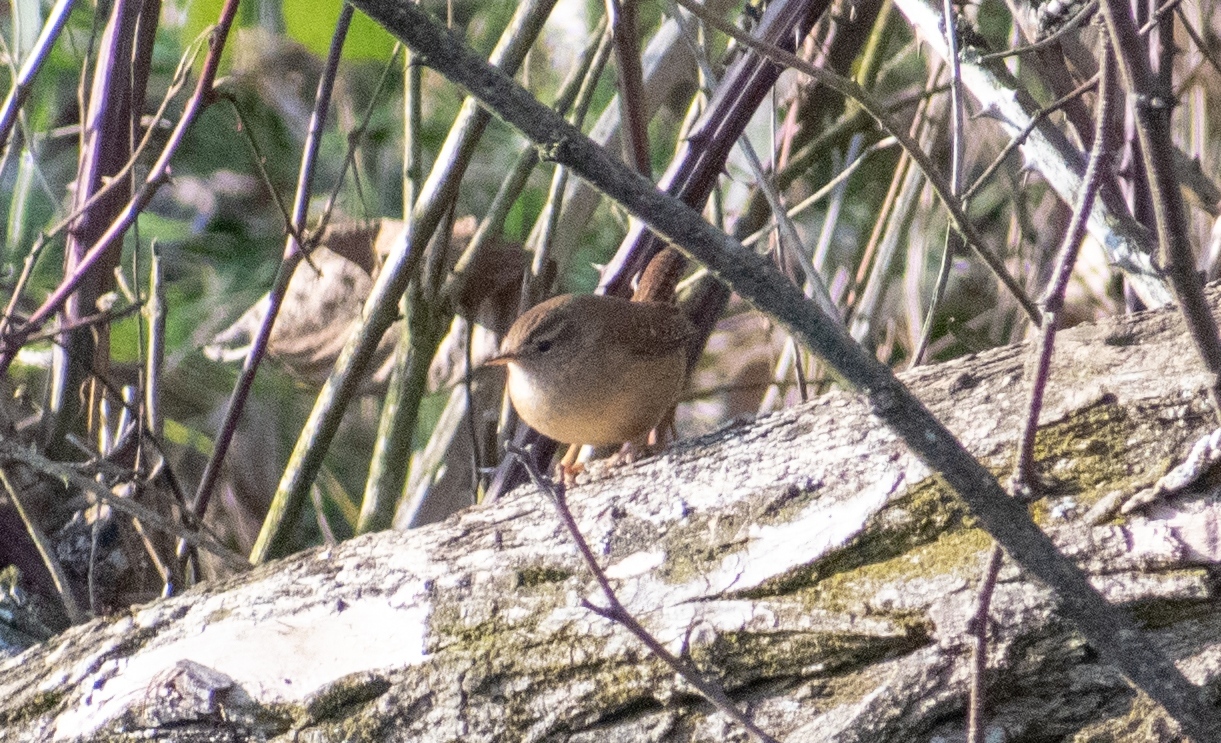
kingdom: Animalia
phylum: Chordata
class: Aves
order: Passeriformes
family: Troglodytidae
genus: Troglodytes
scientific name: Troglodytes troglodytes
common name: Eurasian wren
